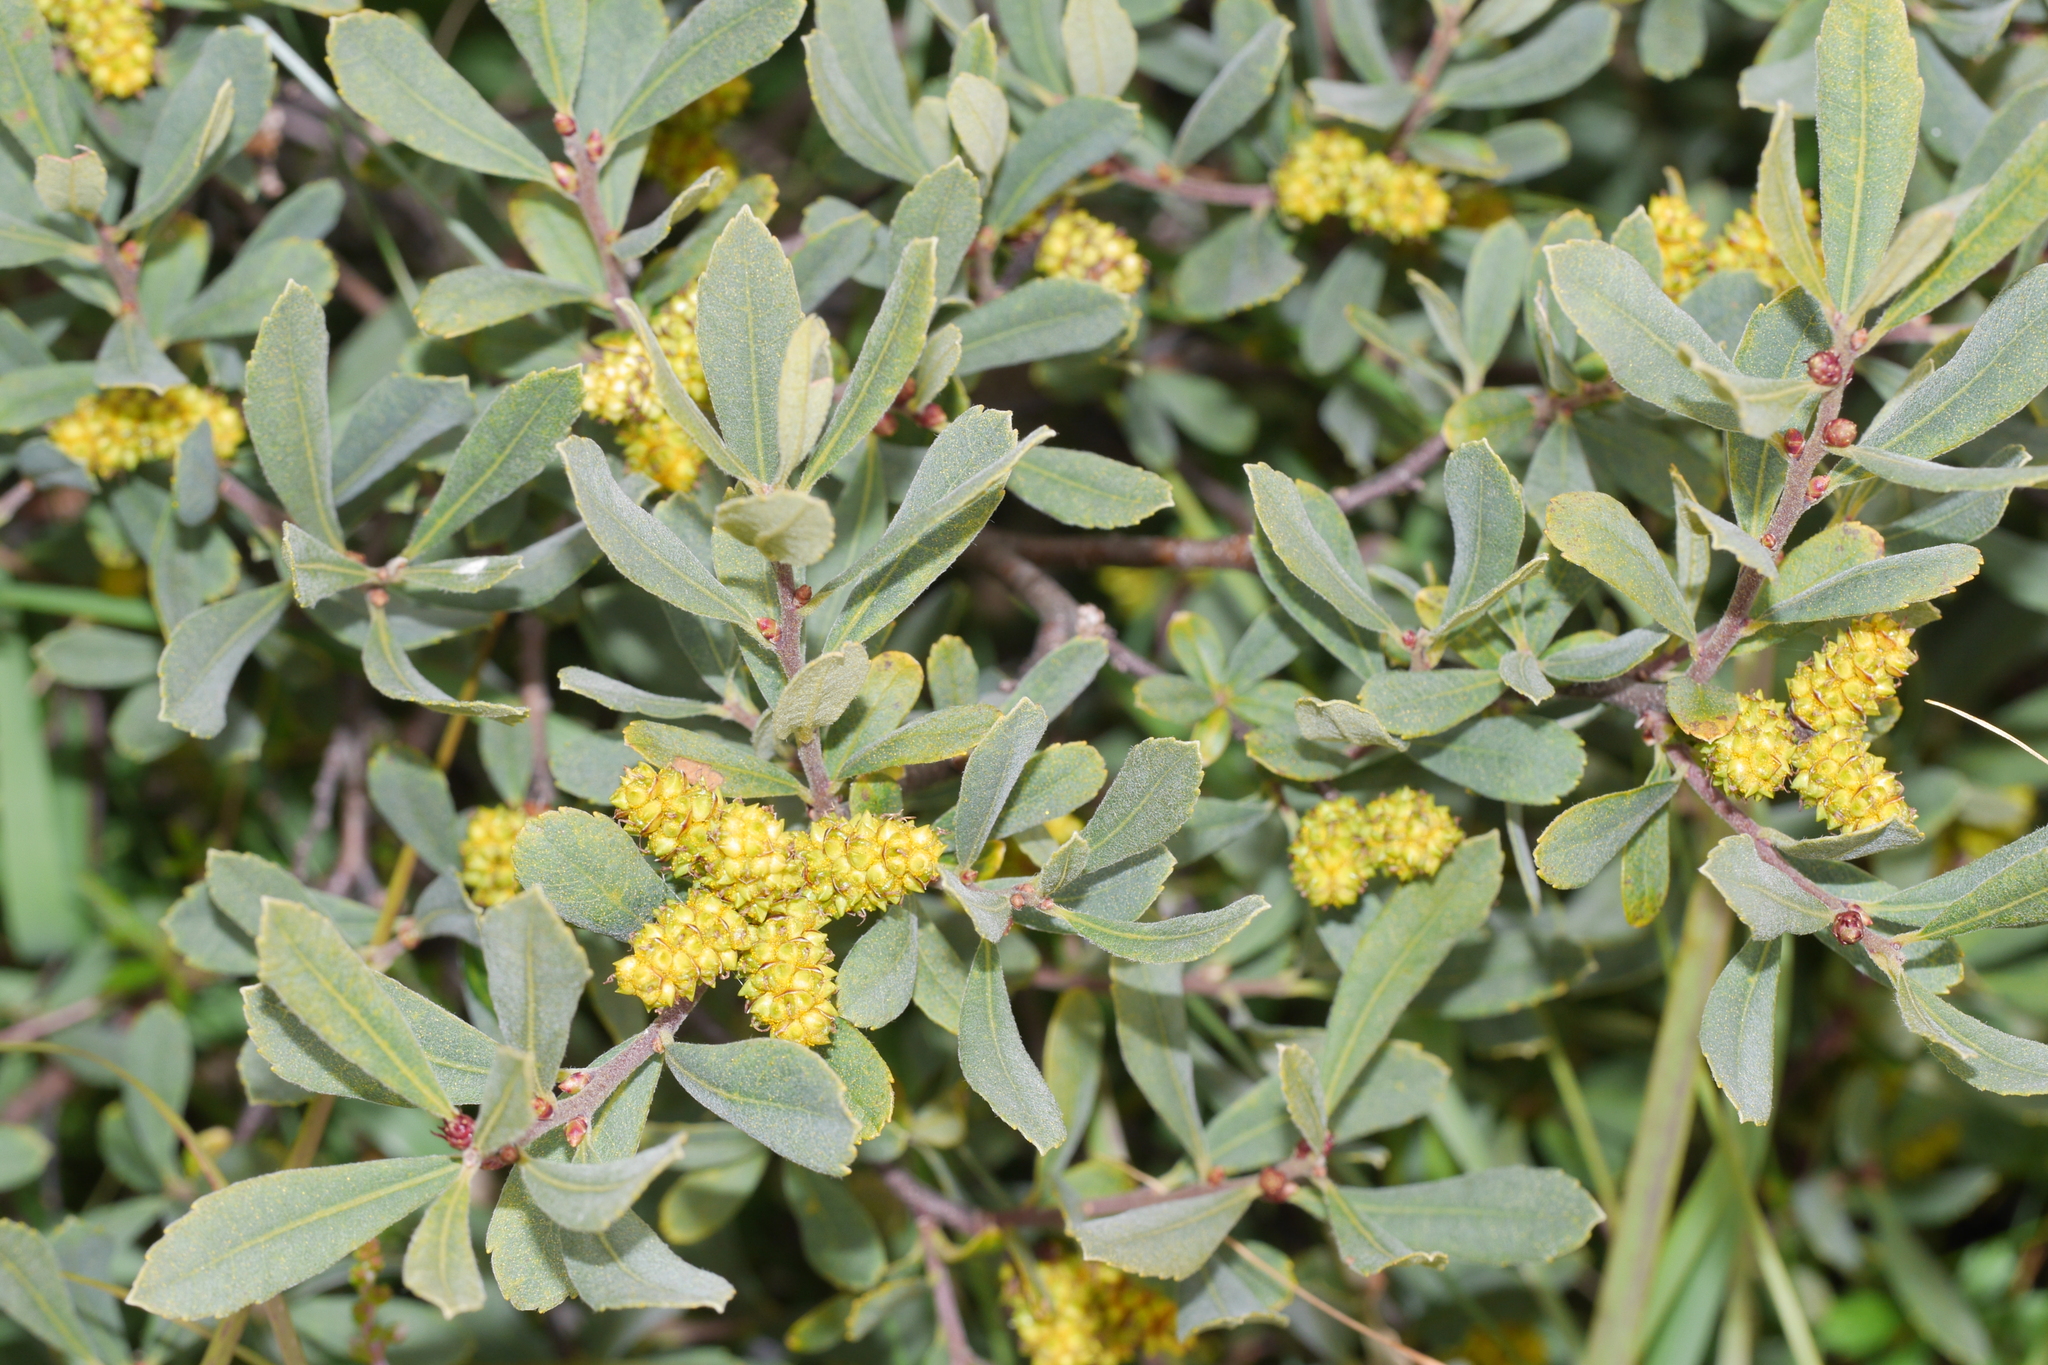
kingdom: Plantae
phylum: Tracheophyta
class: Magnoliopsida
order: Fagales
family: Myricaceae
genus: Myrica
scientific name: Myrica gale
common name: Sweet gale
